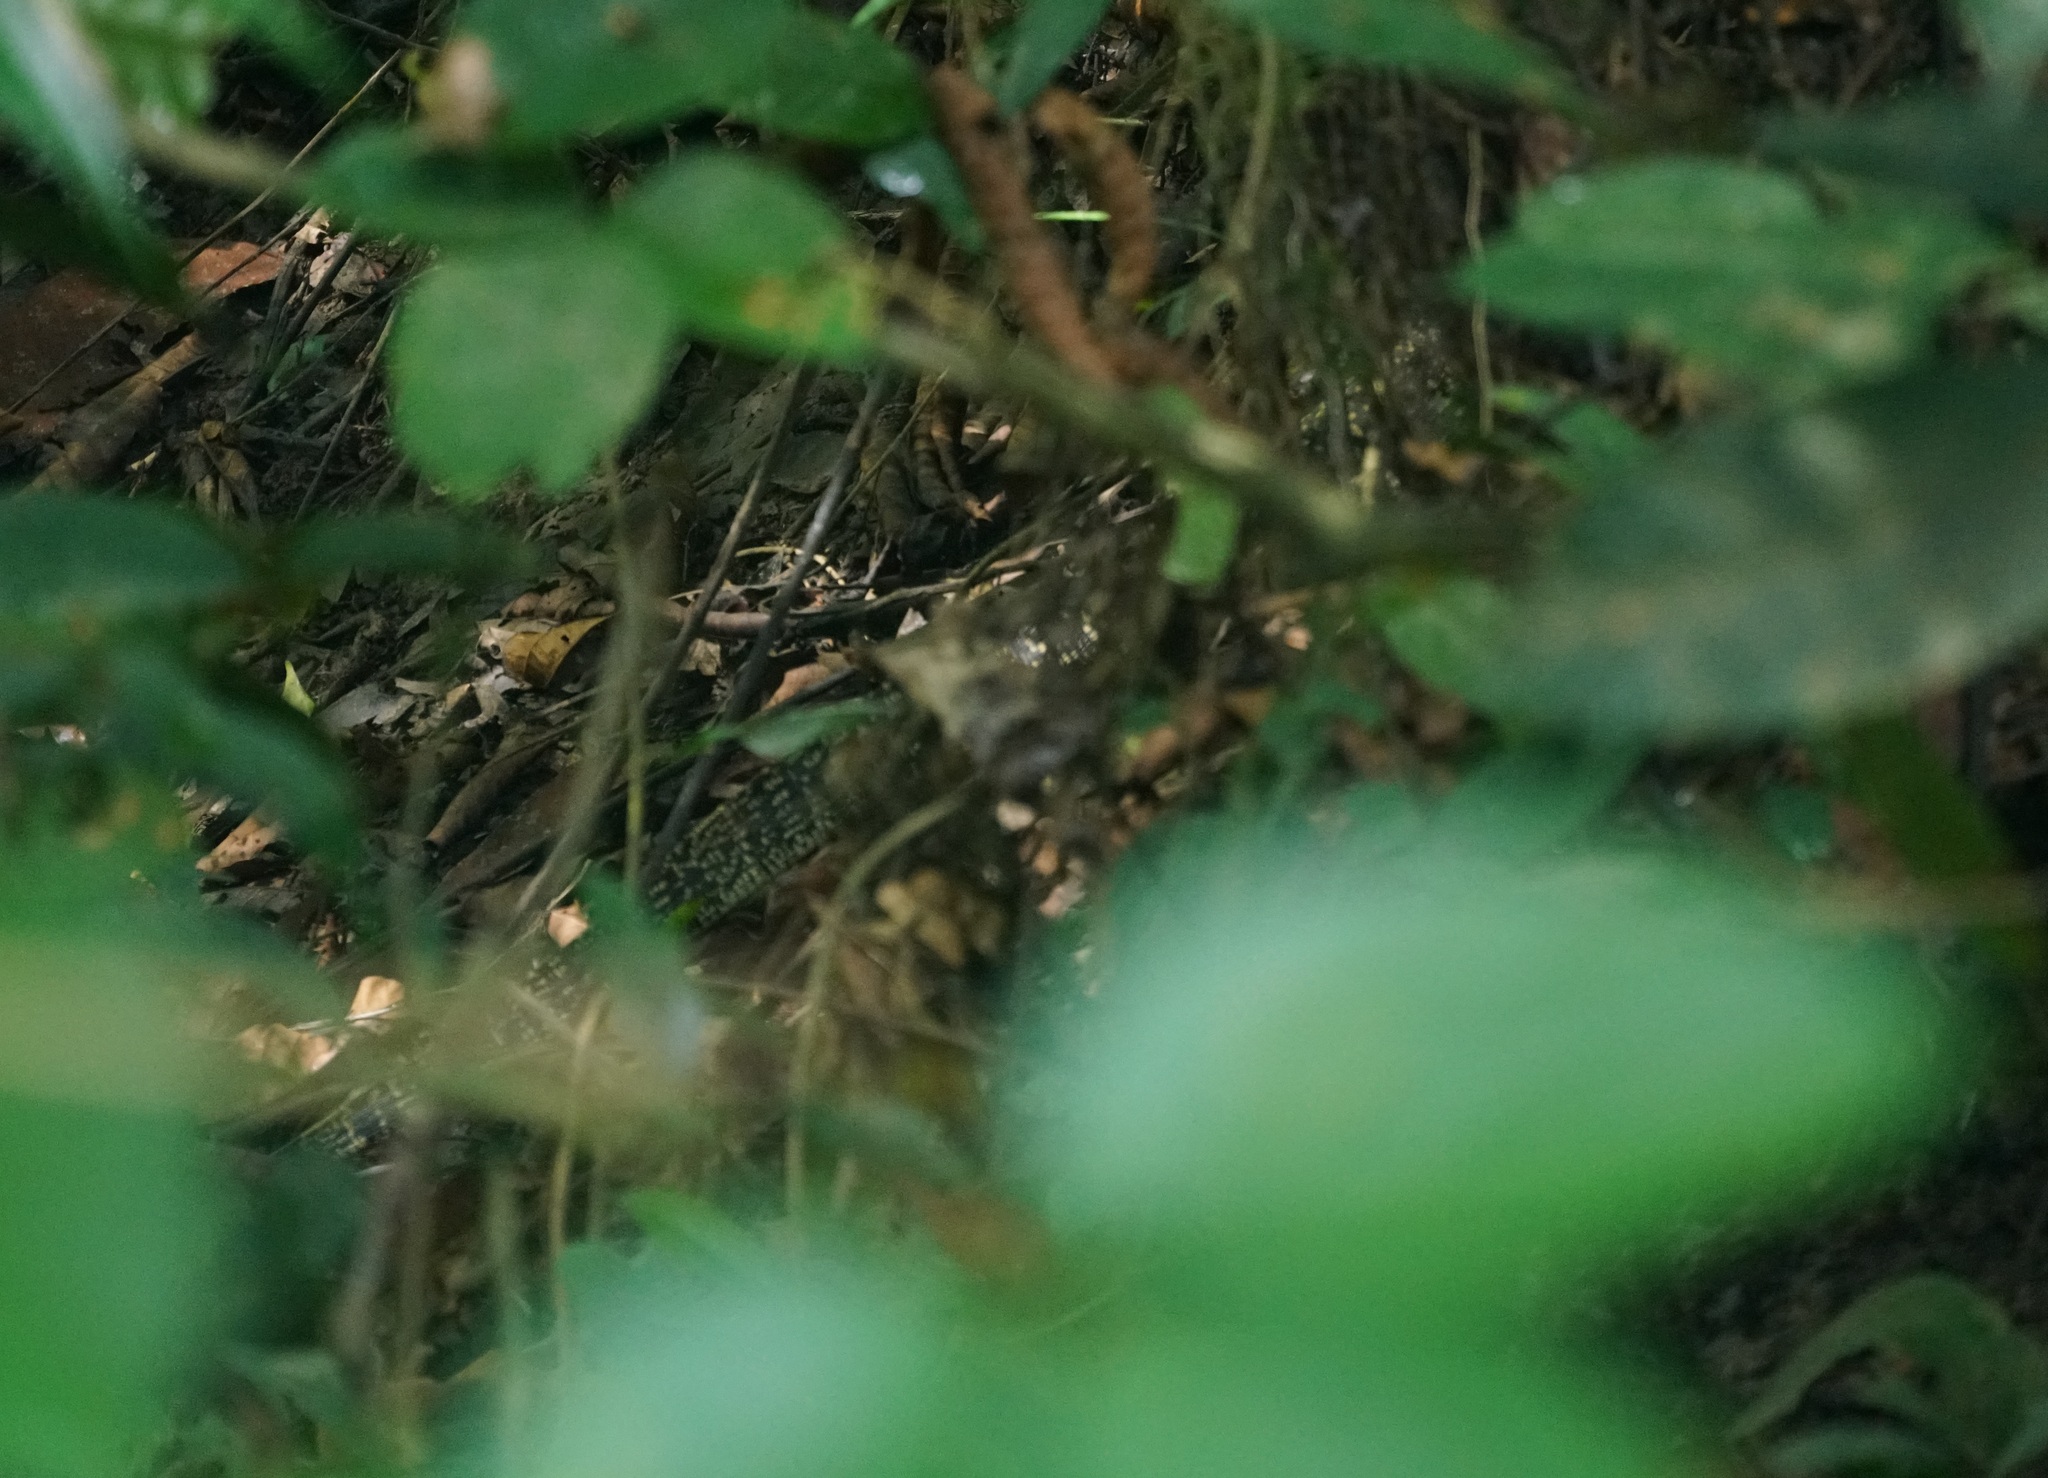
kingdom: Animalia
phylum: Chordata
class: Squamata
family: Varanidae
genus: Varanus
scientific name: Varanus salvator
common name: Common water monitor
